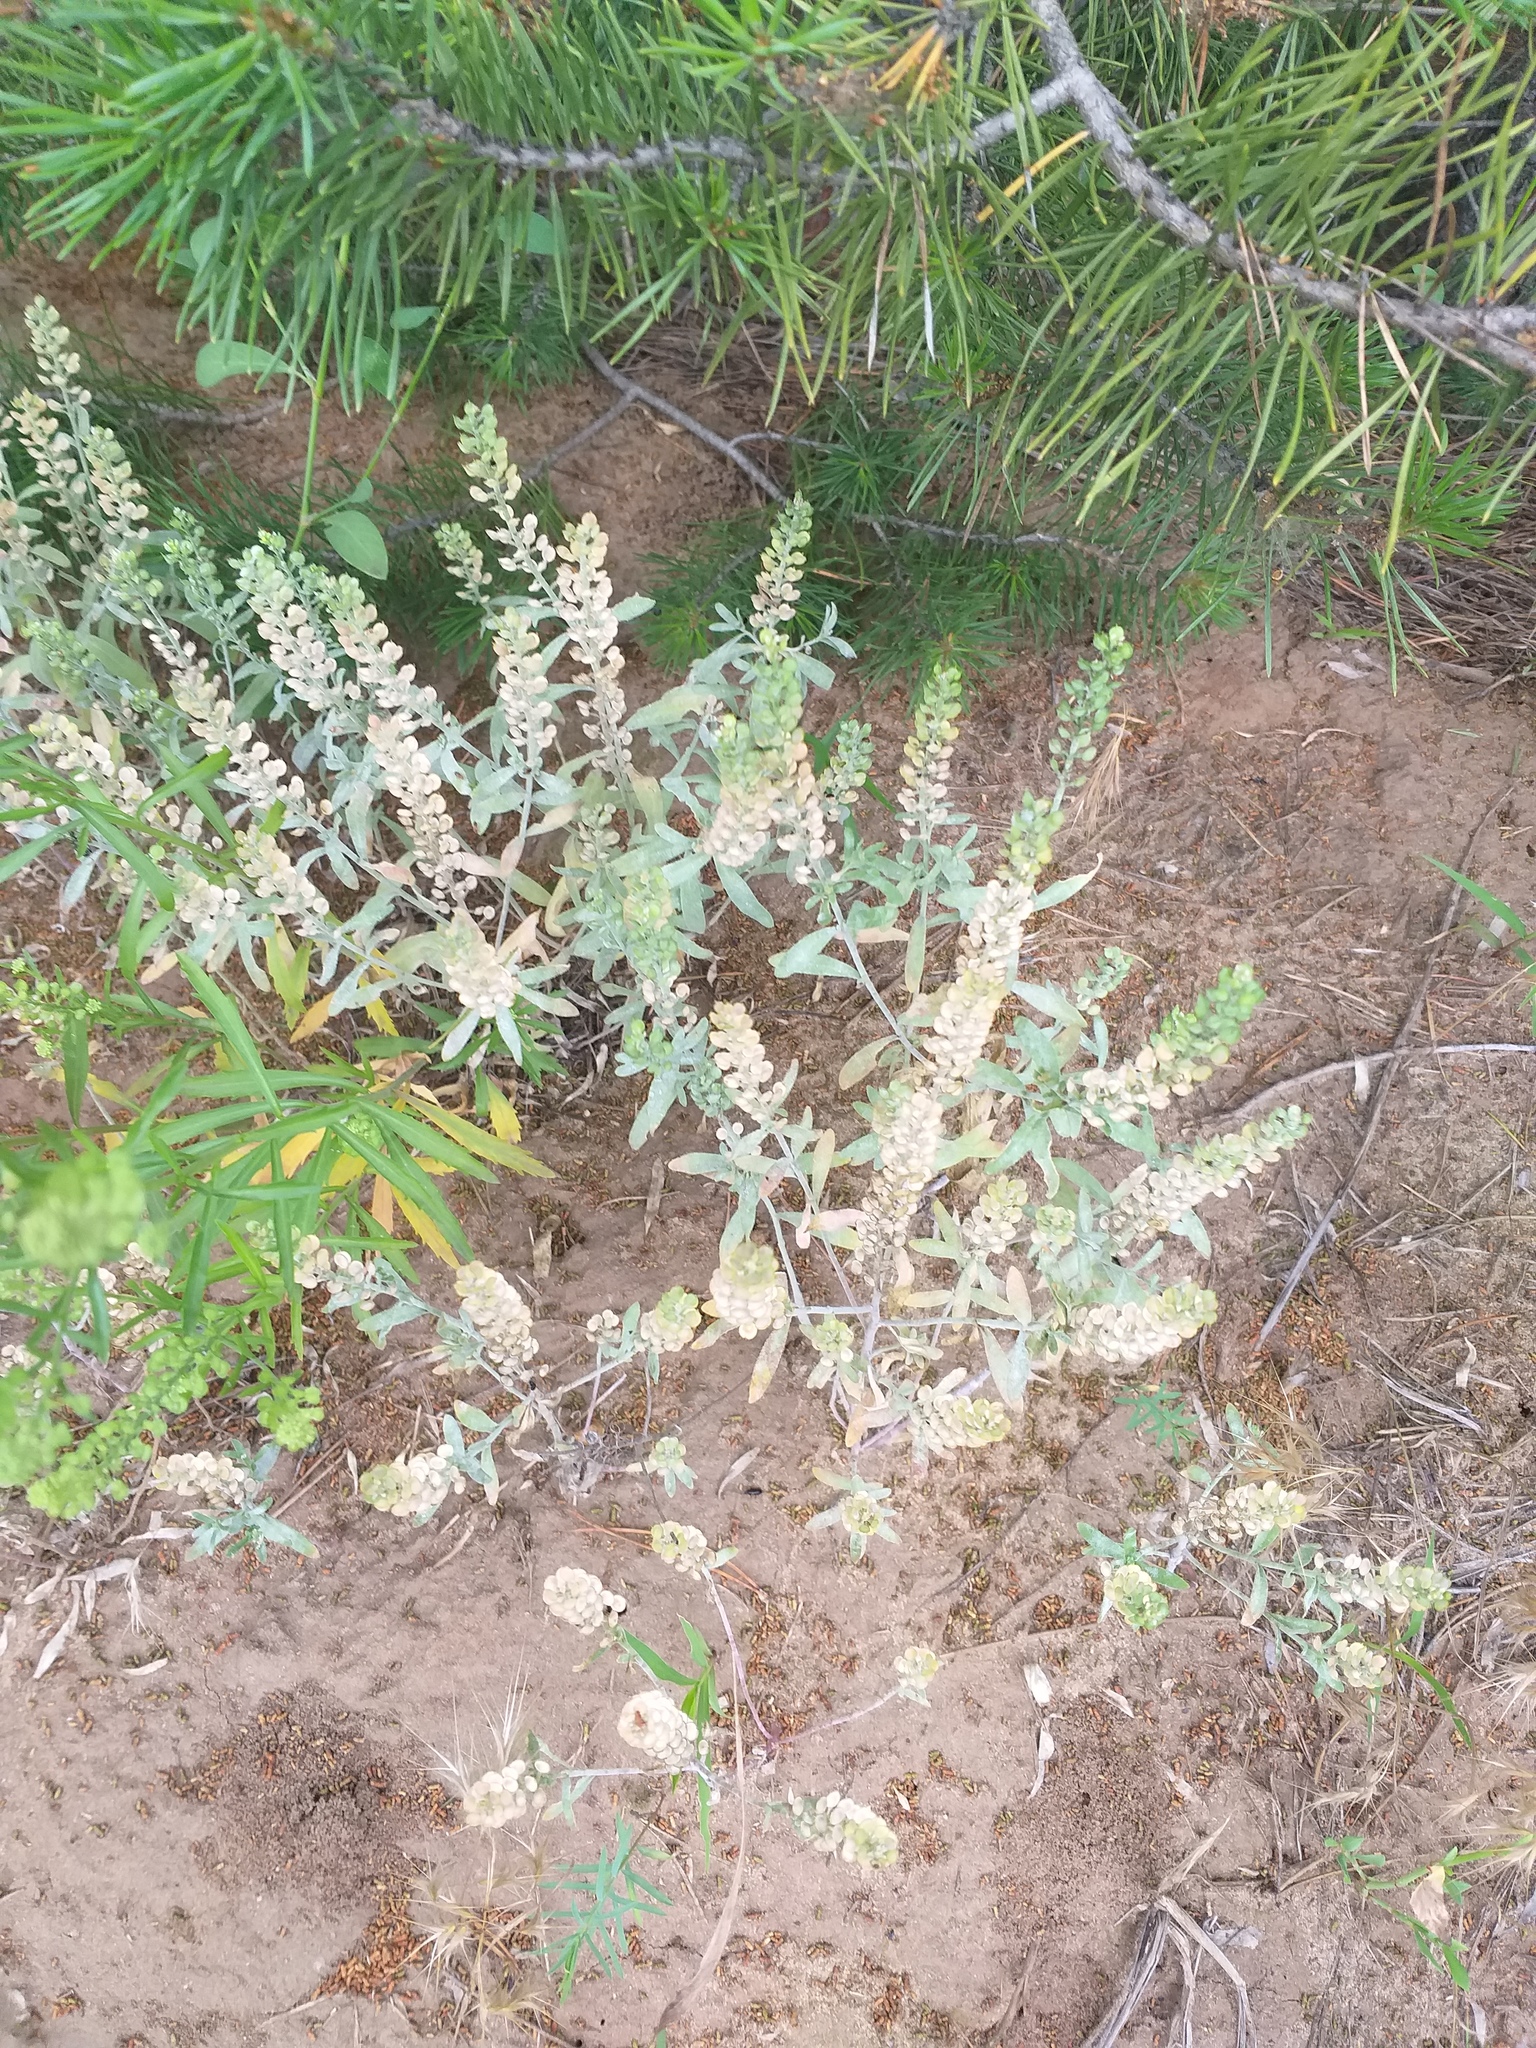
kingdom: Plantae
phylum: Tracheophyta
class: Magnoliopsida
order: Brassicales
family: Brassicaceae
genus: Alyssum
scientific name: Alyssum turkestanicum
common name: Desert alyssum
